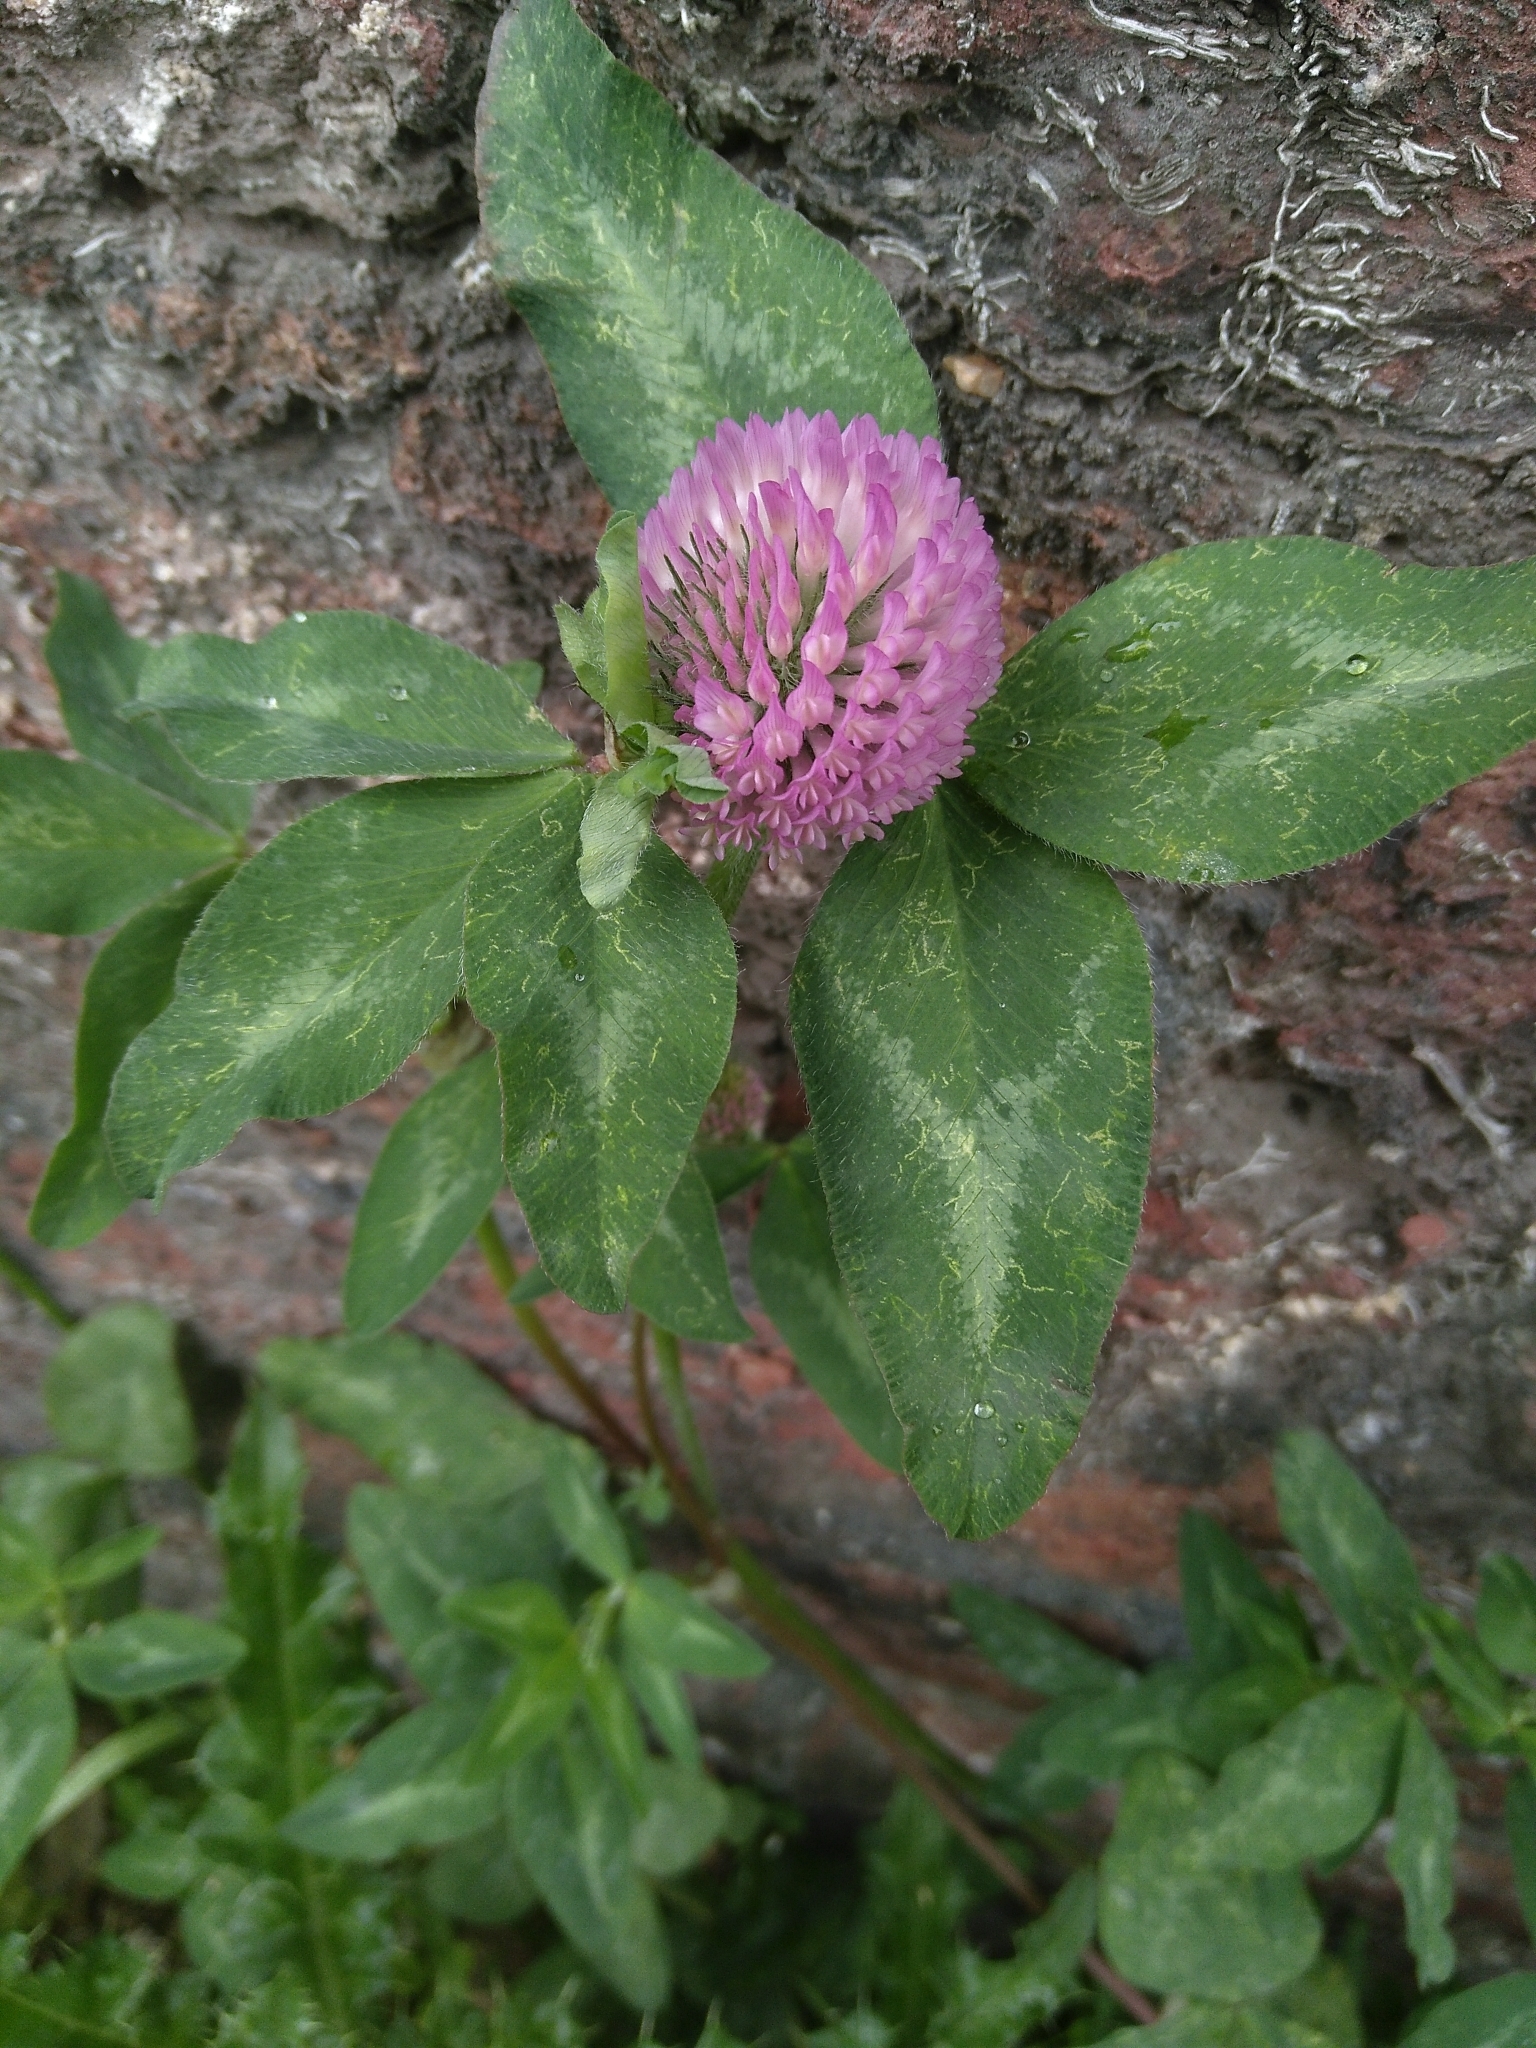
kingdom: Plantae
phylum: Tracheophyta
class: Magnoliopsida
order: Fabales
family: Fabaceae
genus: Trifolium
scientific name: Trifolium pratense
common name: Red clover
